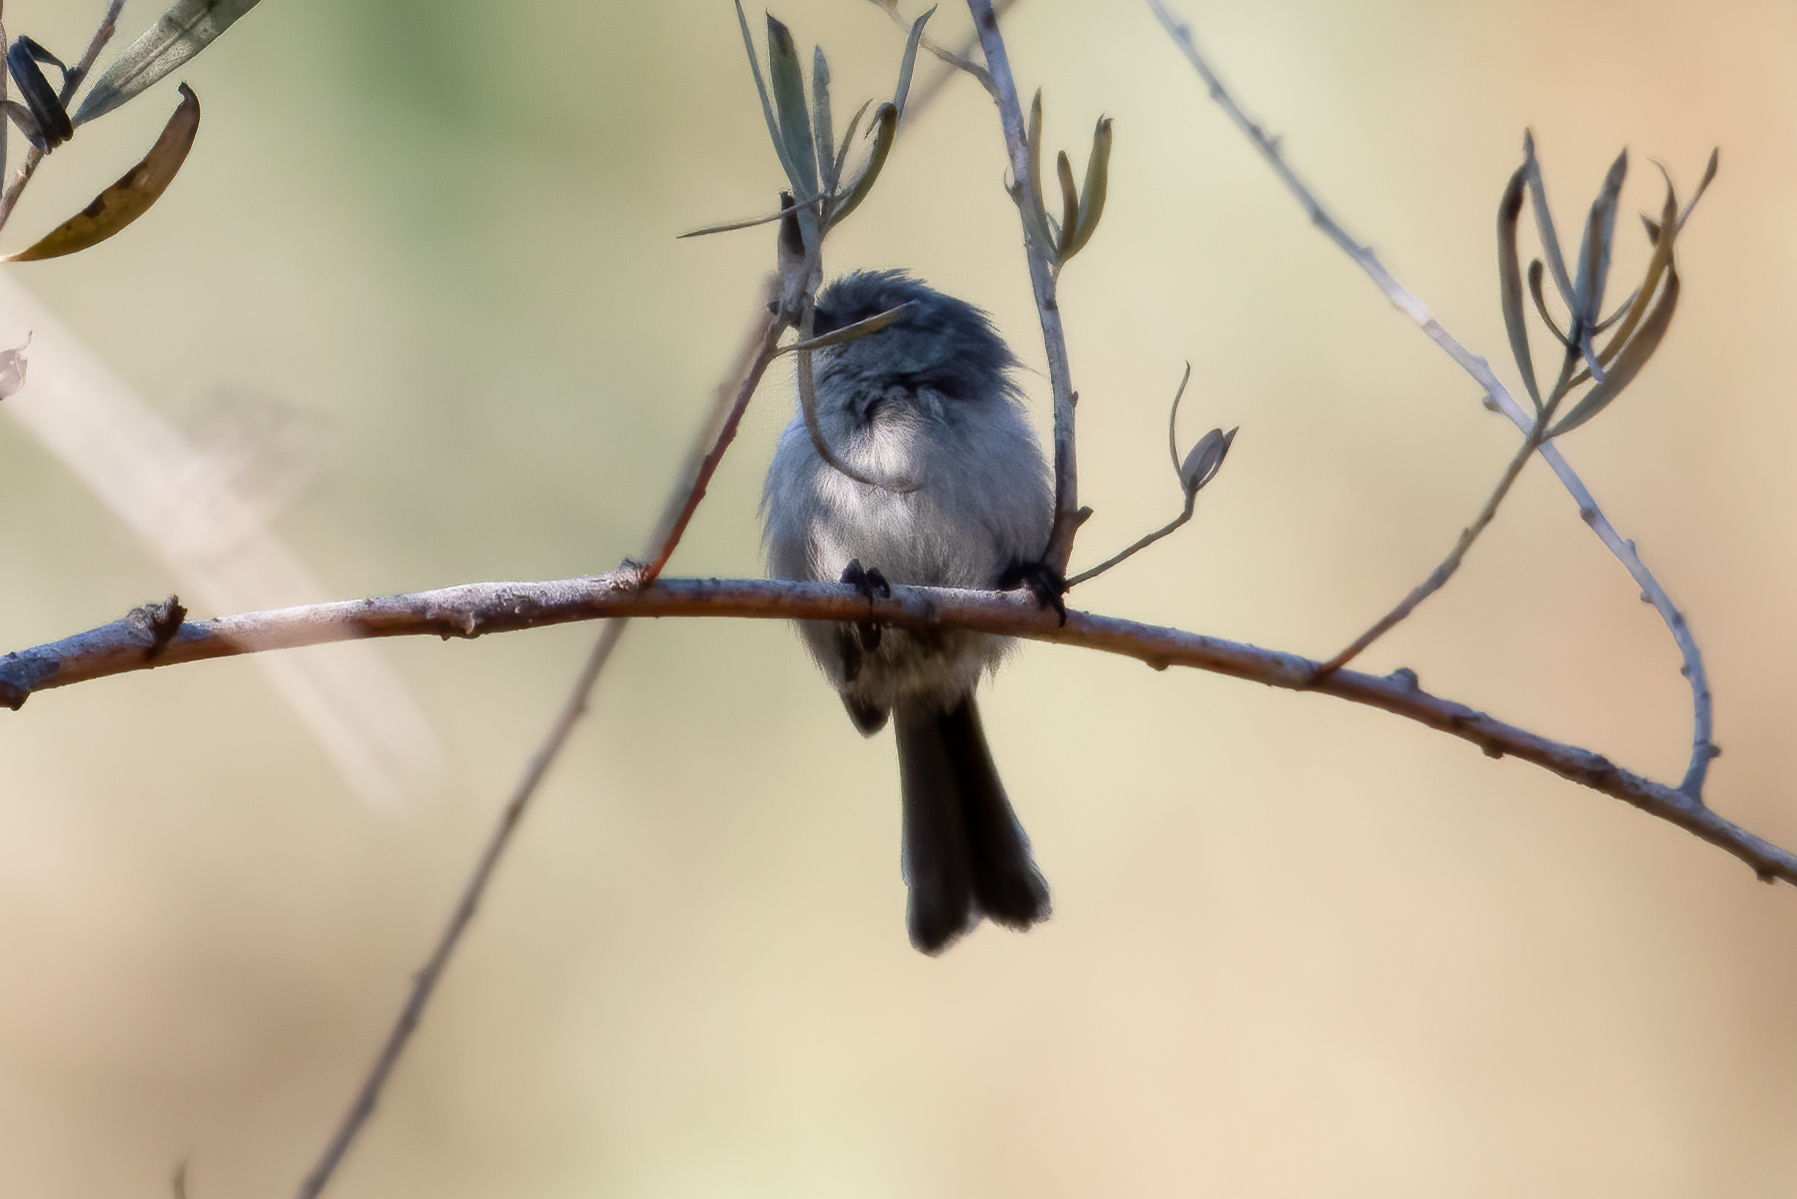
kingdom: Animalia
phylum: Chordata
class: Aves
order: Passeriformes
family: Aegithalidae
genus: Psaltriparus
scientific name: Psaltriparus minimus
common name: American bushtit
